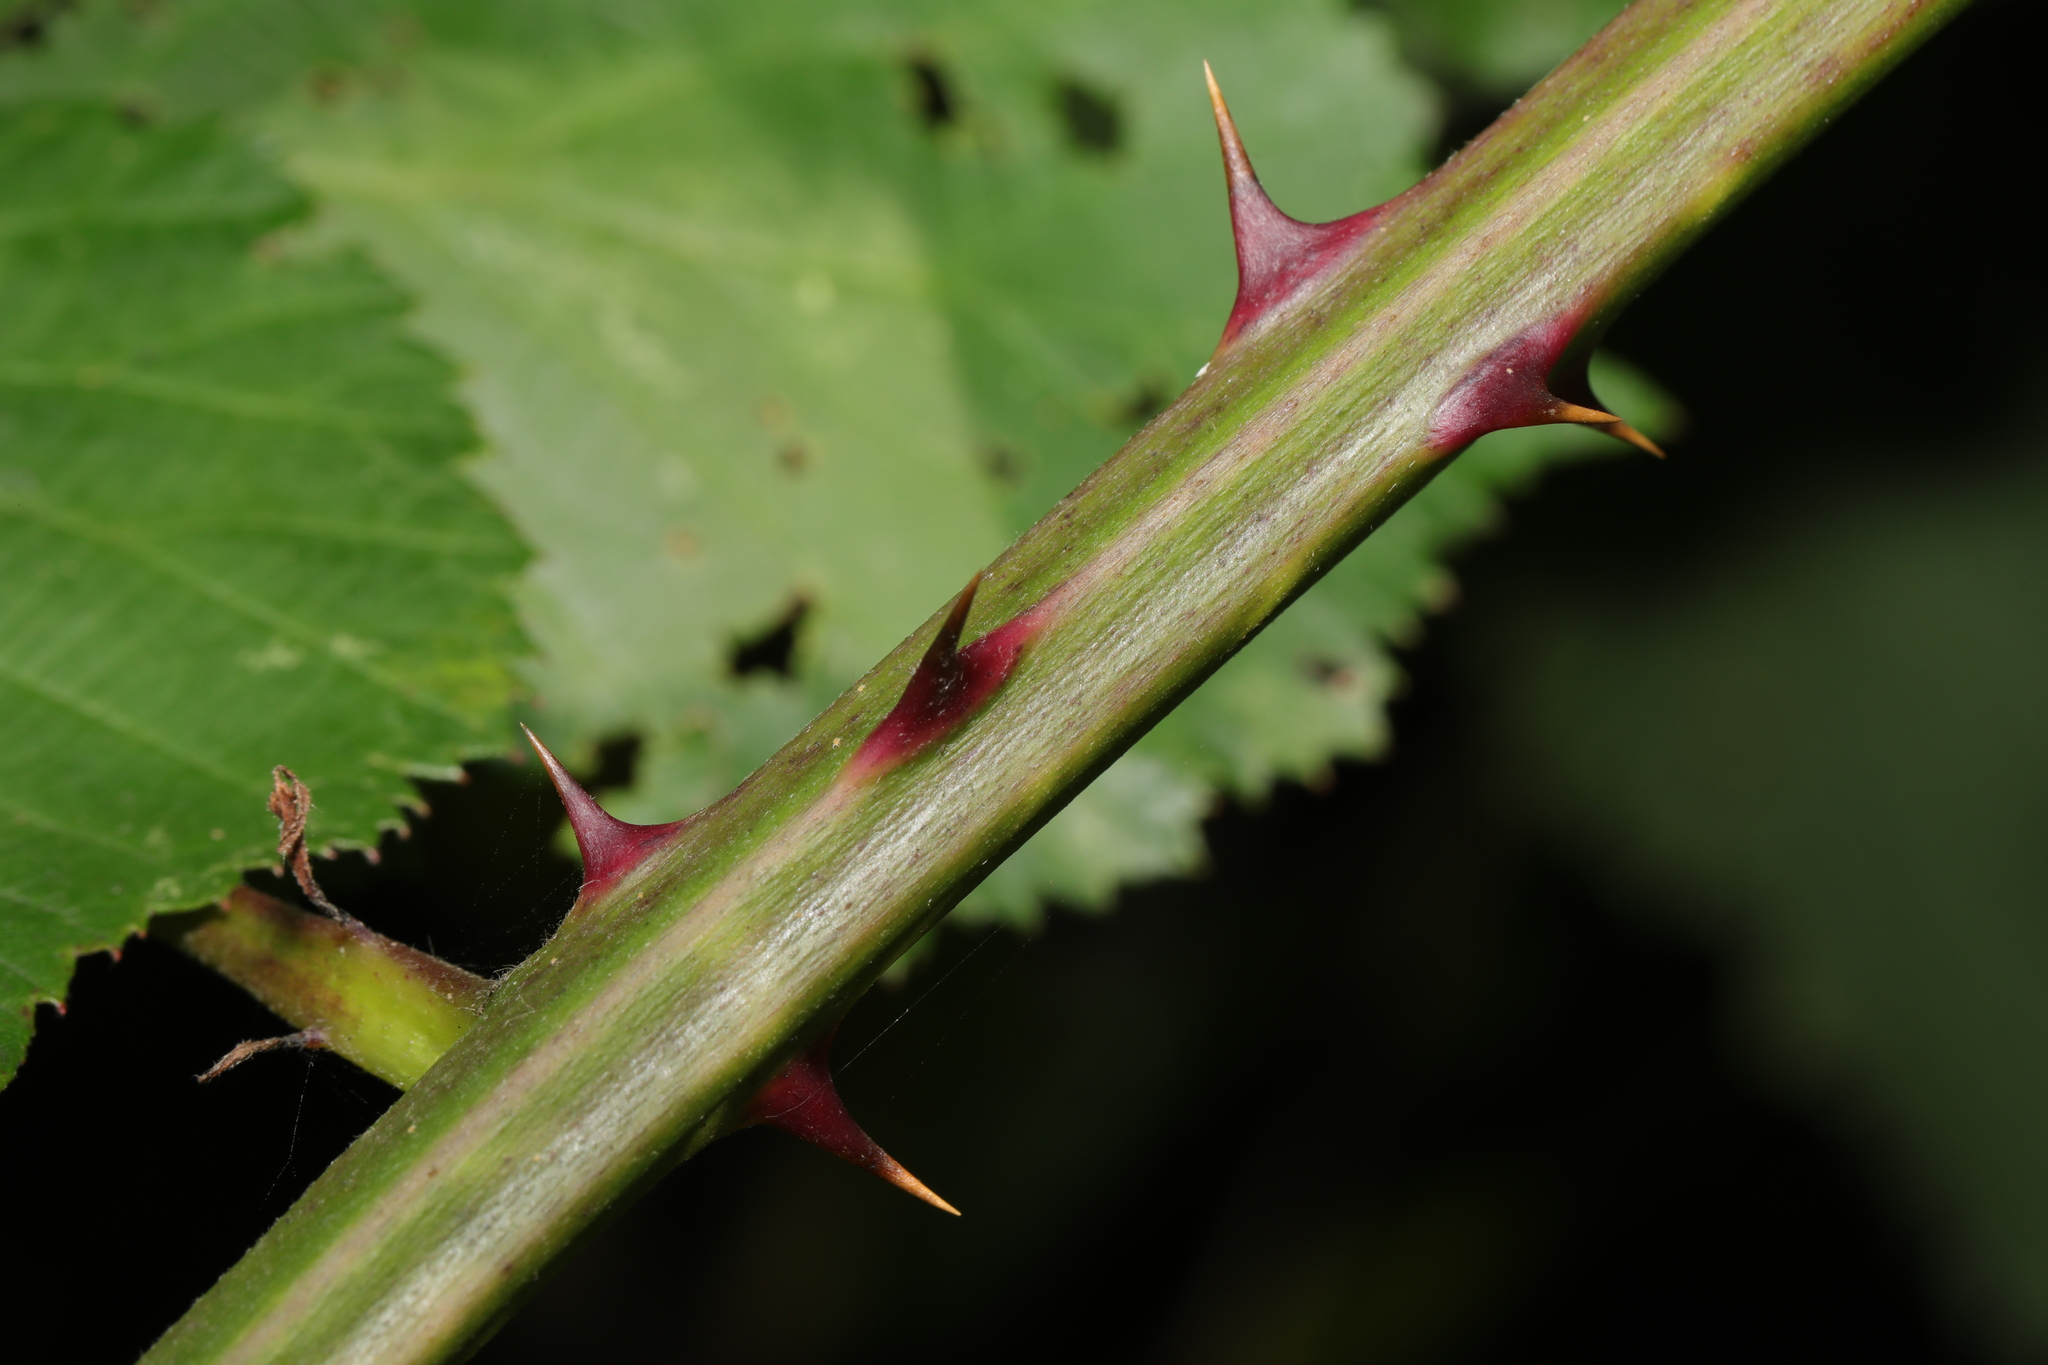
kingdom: Plantae
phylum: Tracheophyta
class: Magnoliopsida
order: Rosales
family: Rosaceae
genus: Rubus
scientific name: Rubus armeniacus
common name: Himalayan blackberry
